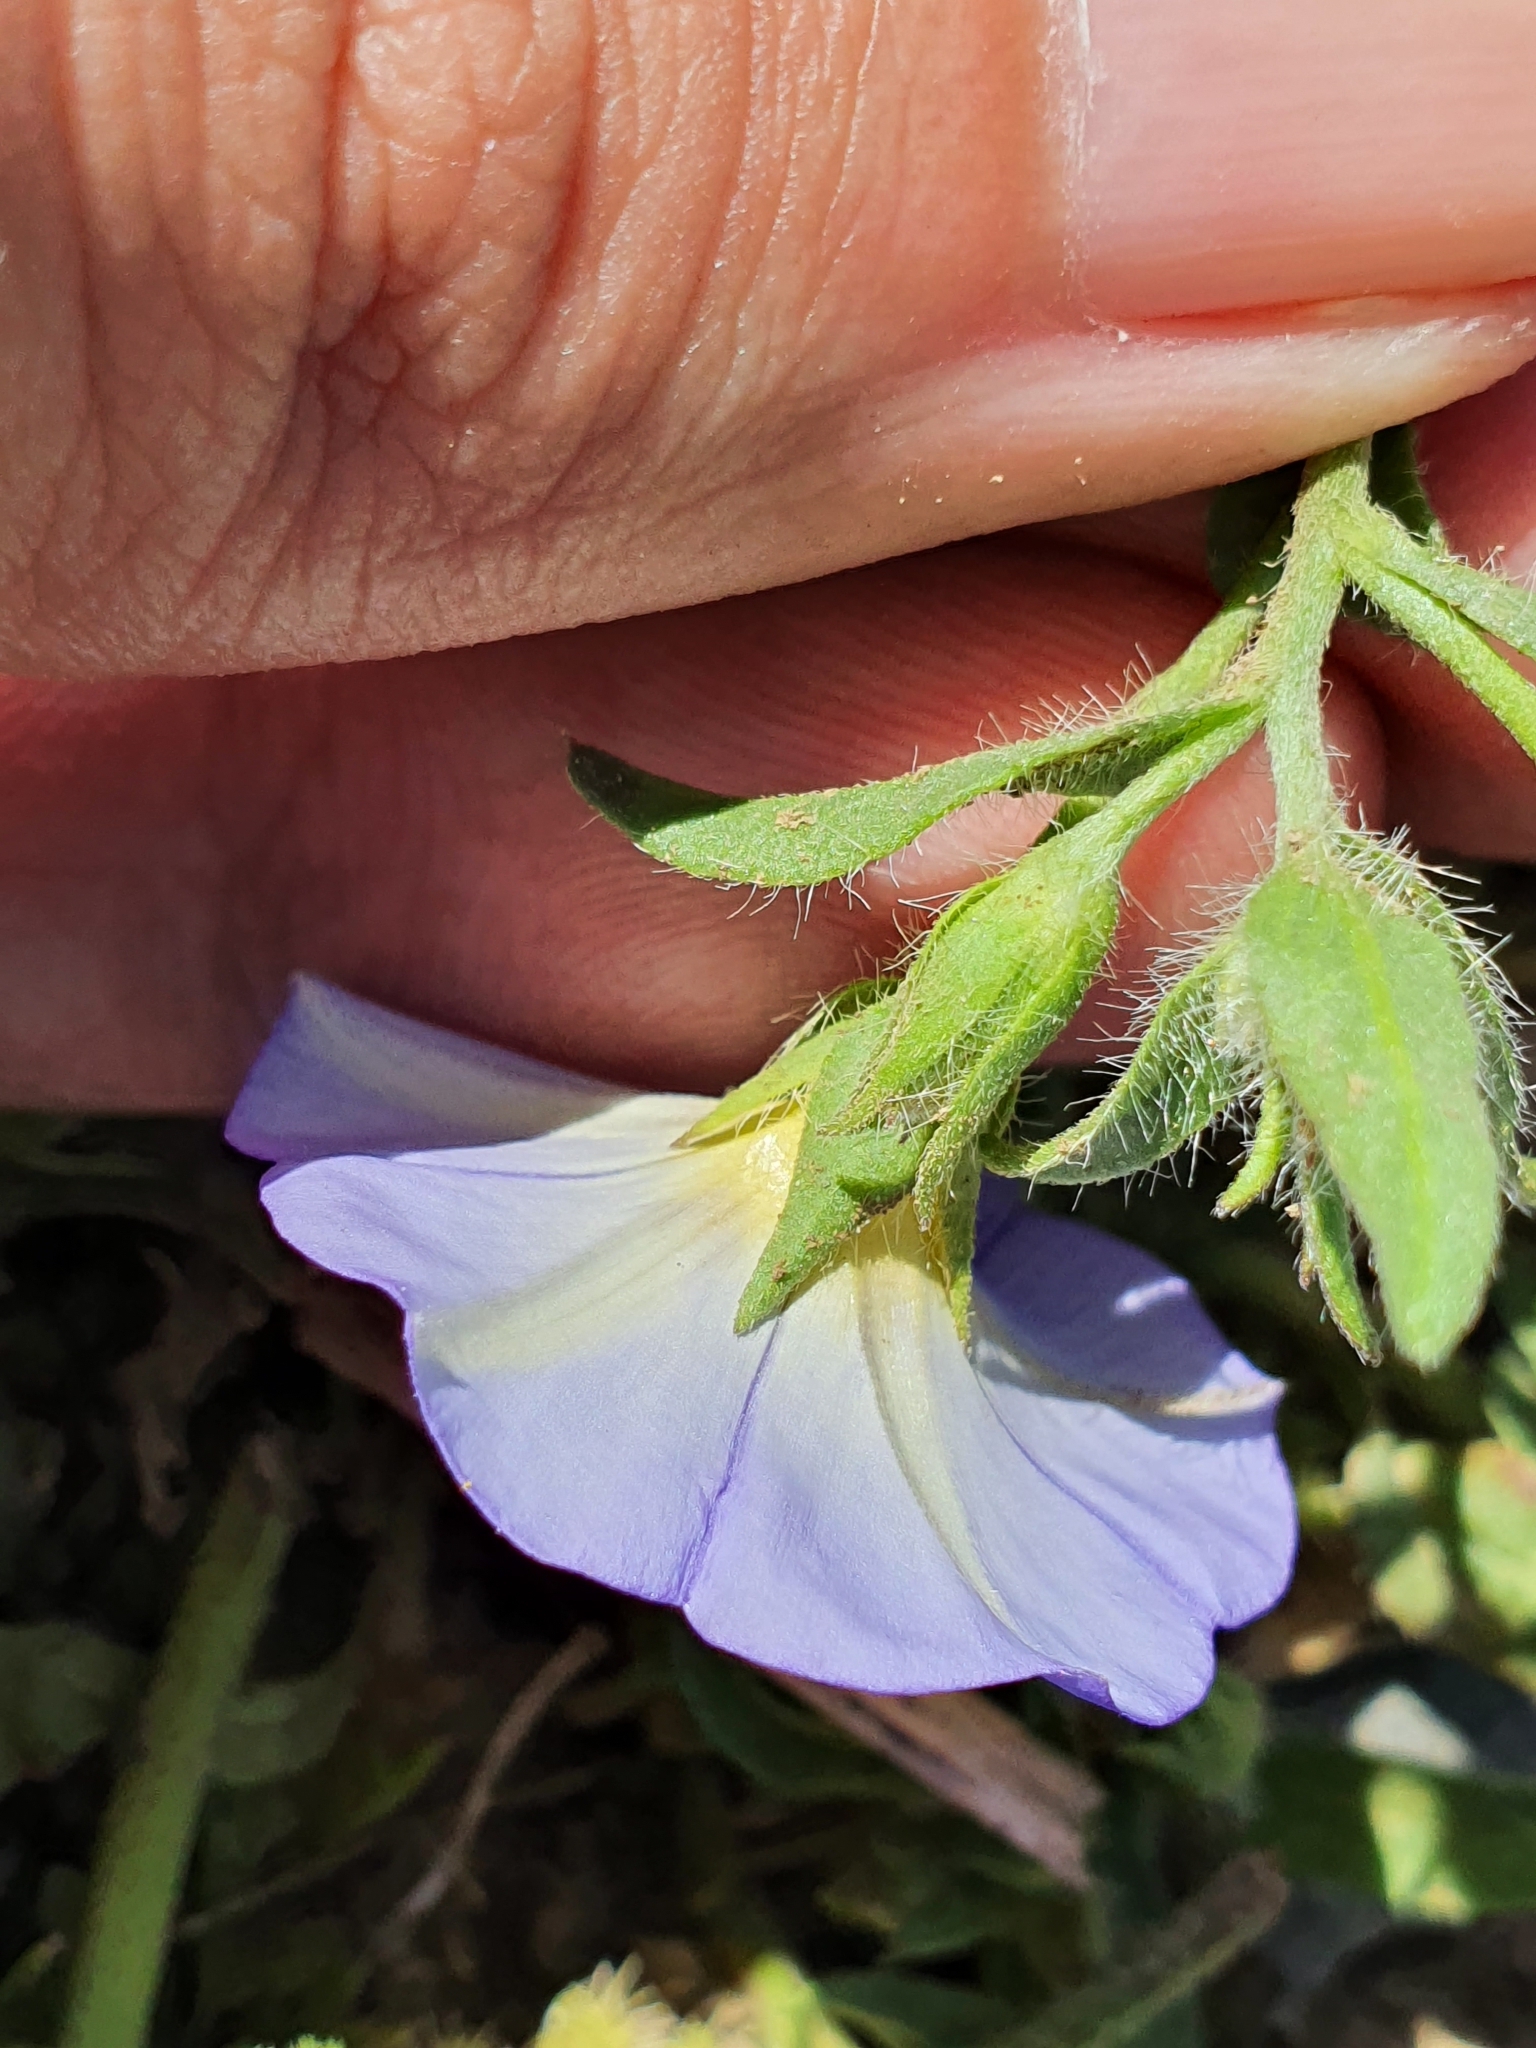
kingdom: Plantae
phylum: Tracheophyta
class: Magnoliopsida
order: Solanales
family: Convolvulaceae
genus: Convolvulus
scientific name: Convolvulus tricolor
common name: Dwarf morning-glory
